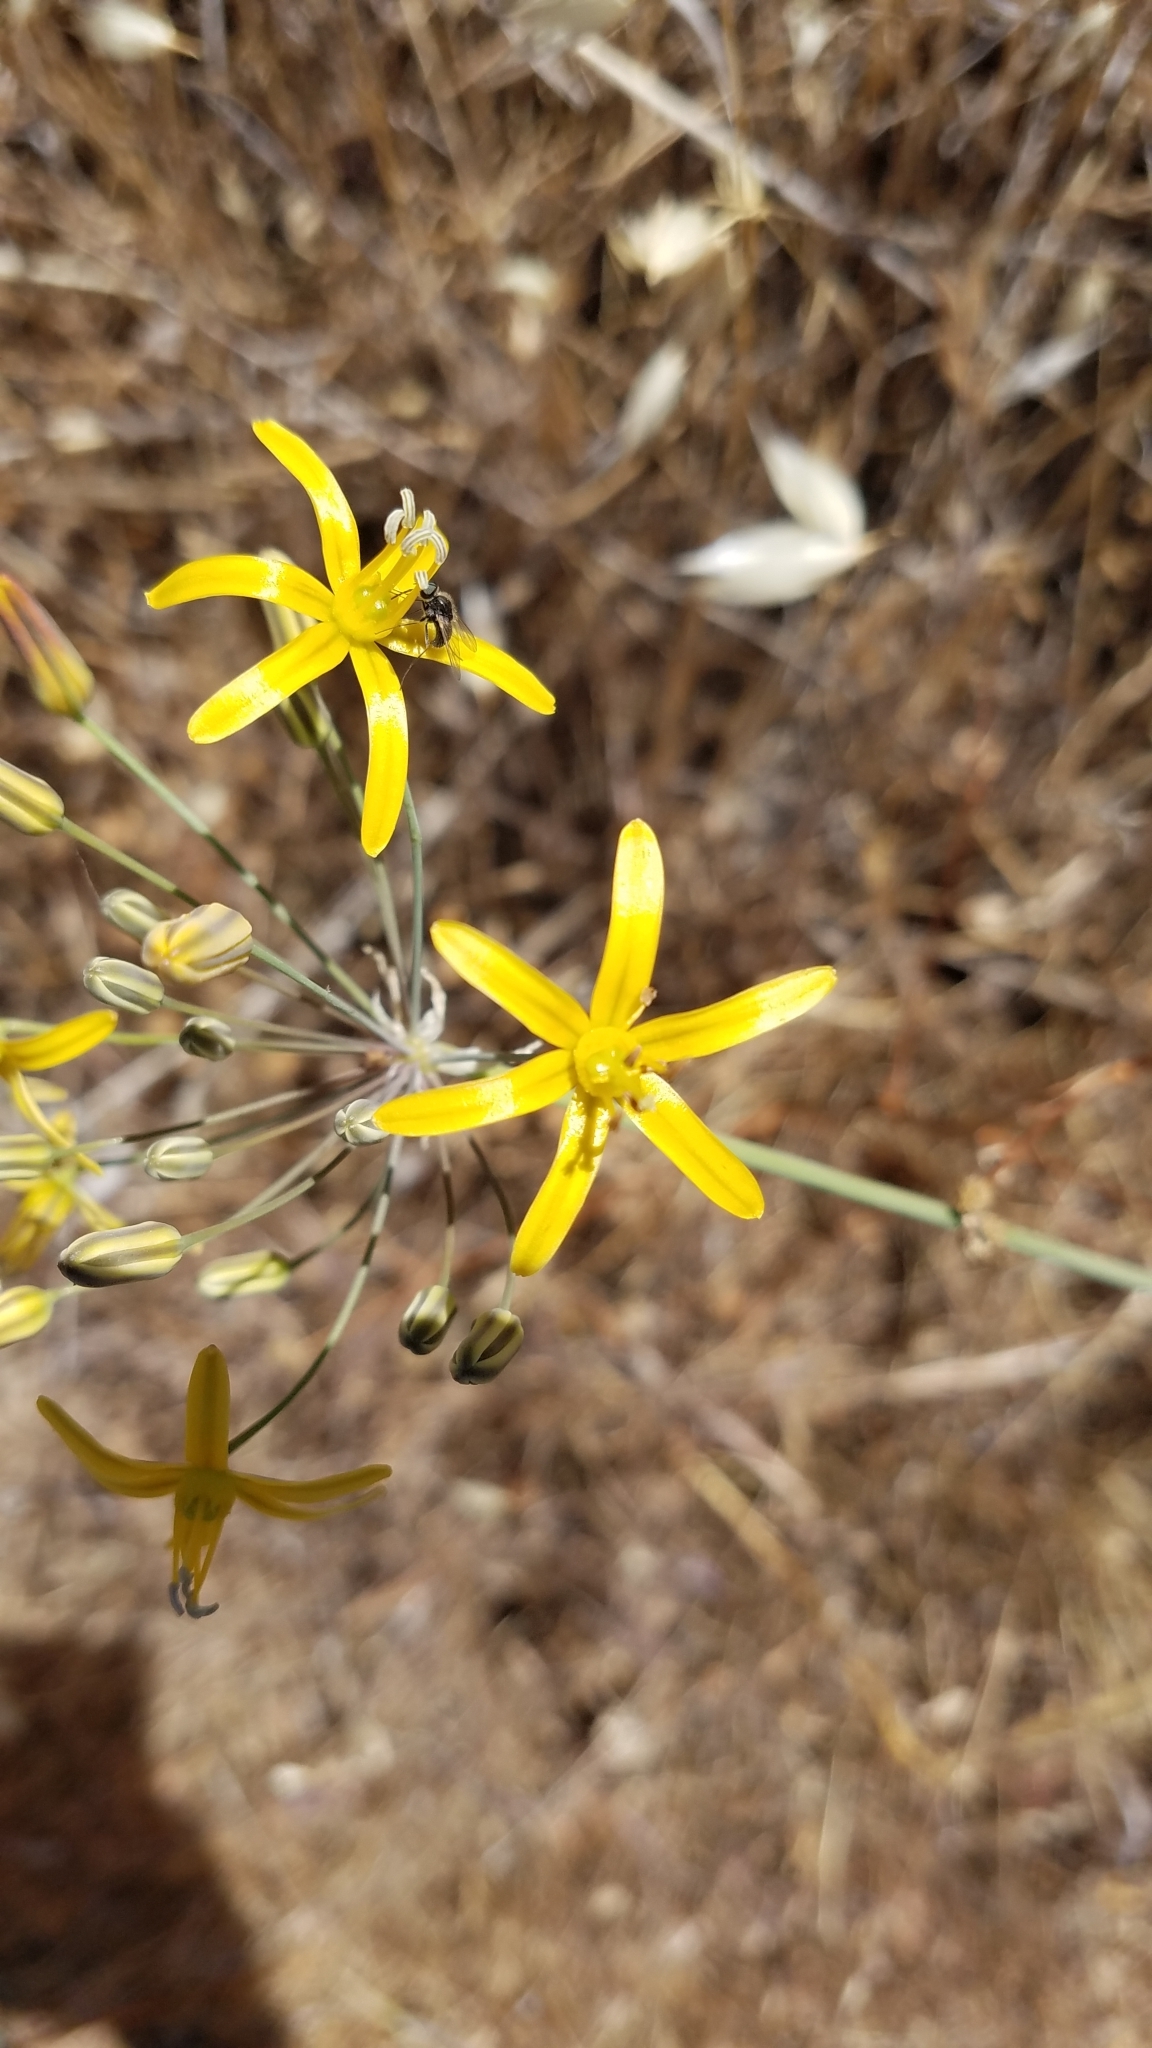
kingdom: Plantae
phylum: Tracheophyta
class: Liliopsida
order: Asparagales
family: Asparagaceae
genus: Bloomeria
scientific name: Bloomeria crocea
